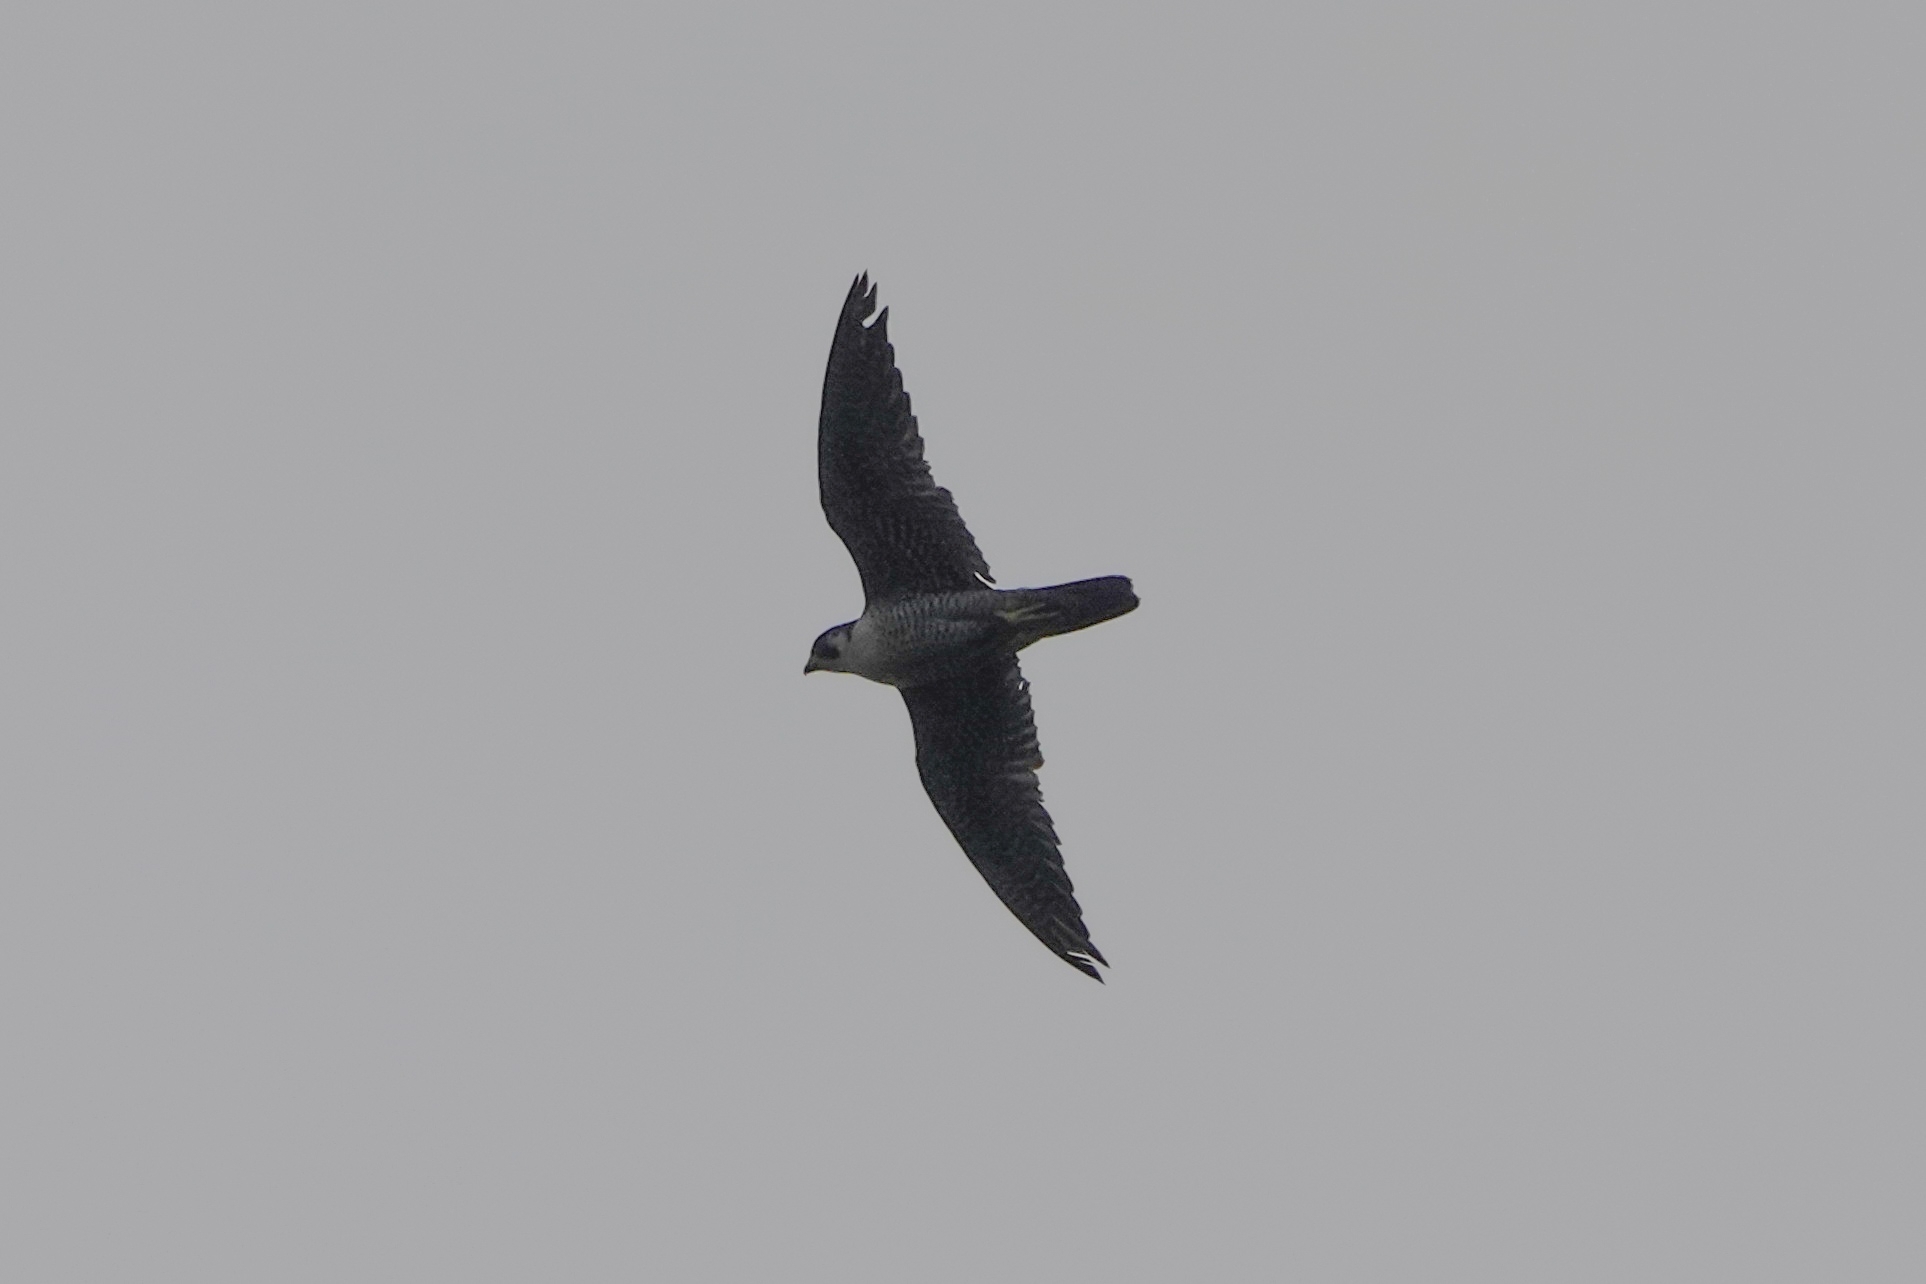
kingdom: Animalia
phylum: Chordata
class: Aves
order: Falconiformes
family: Falconidae
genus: Falco
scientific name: Falco peregrinus
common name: Peregrine falcon
